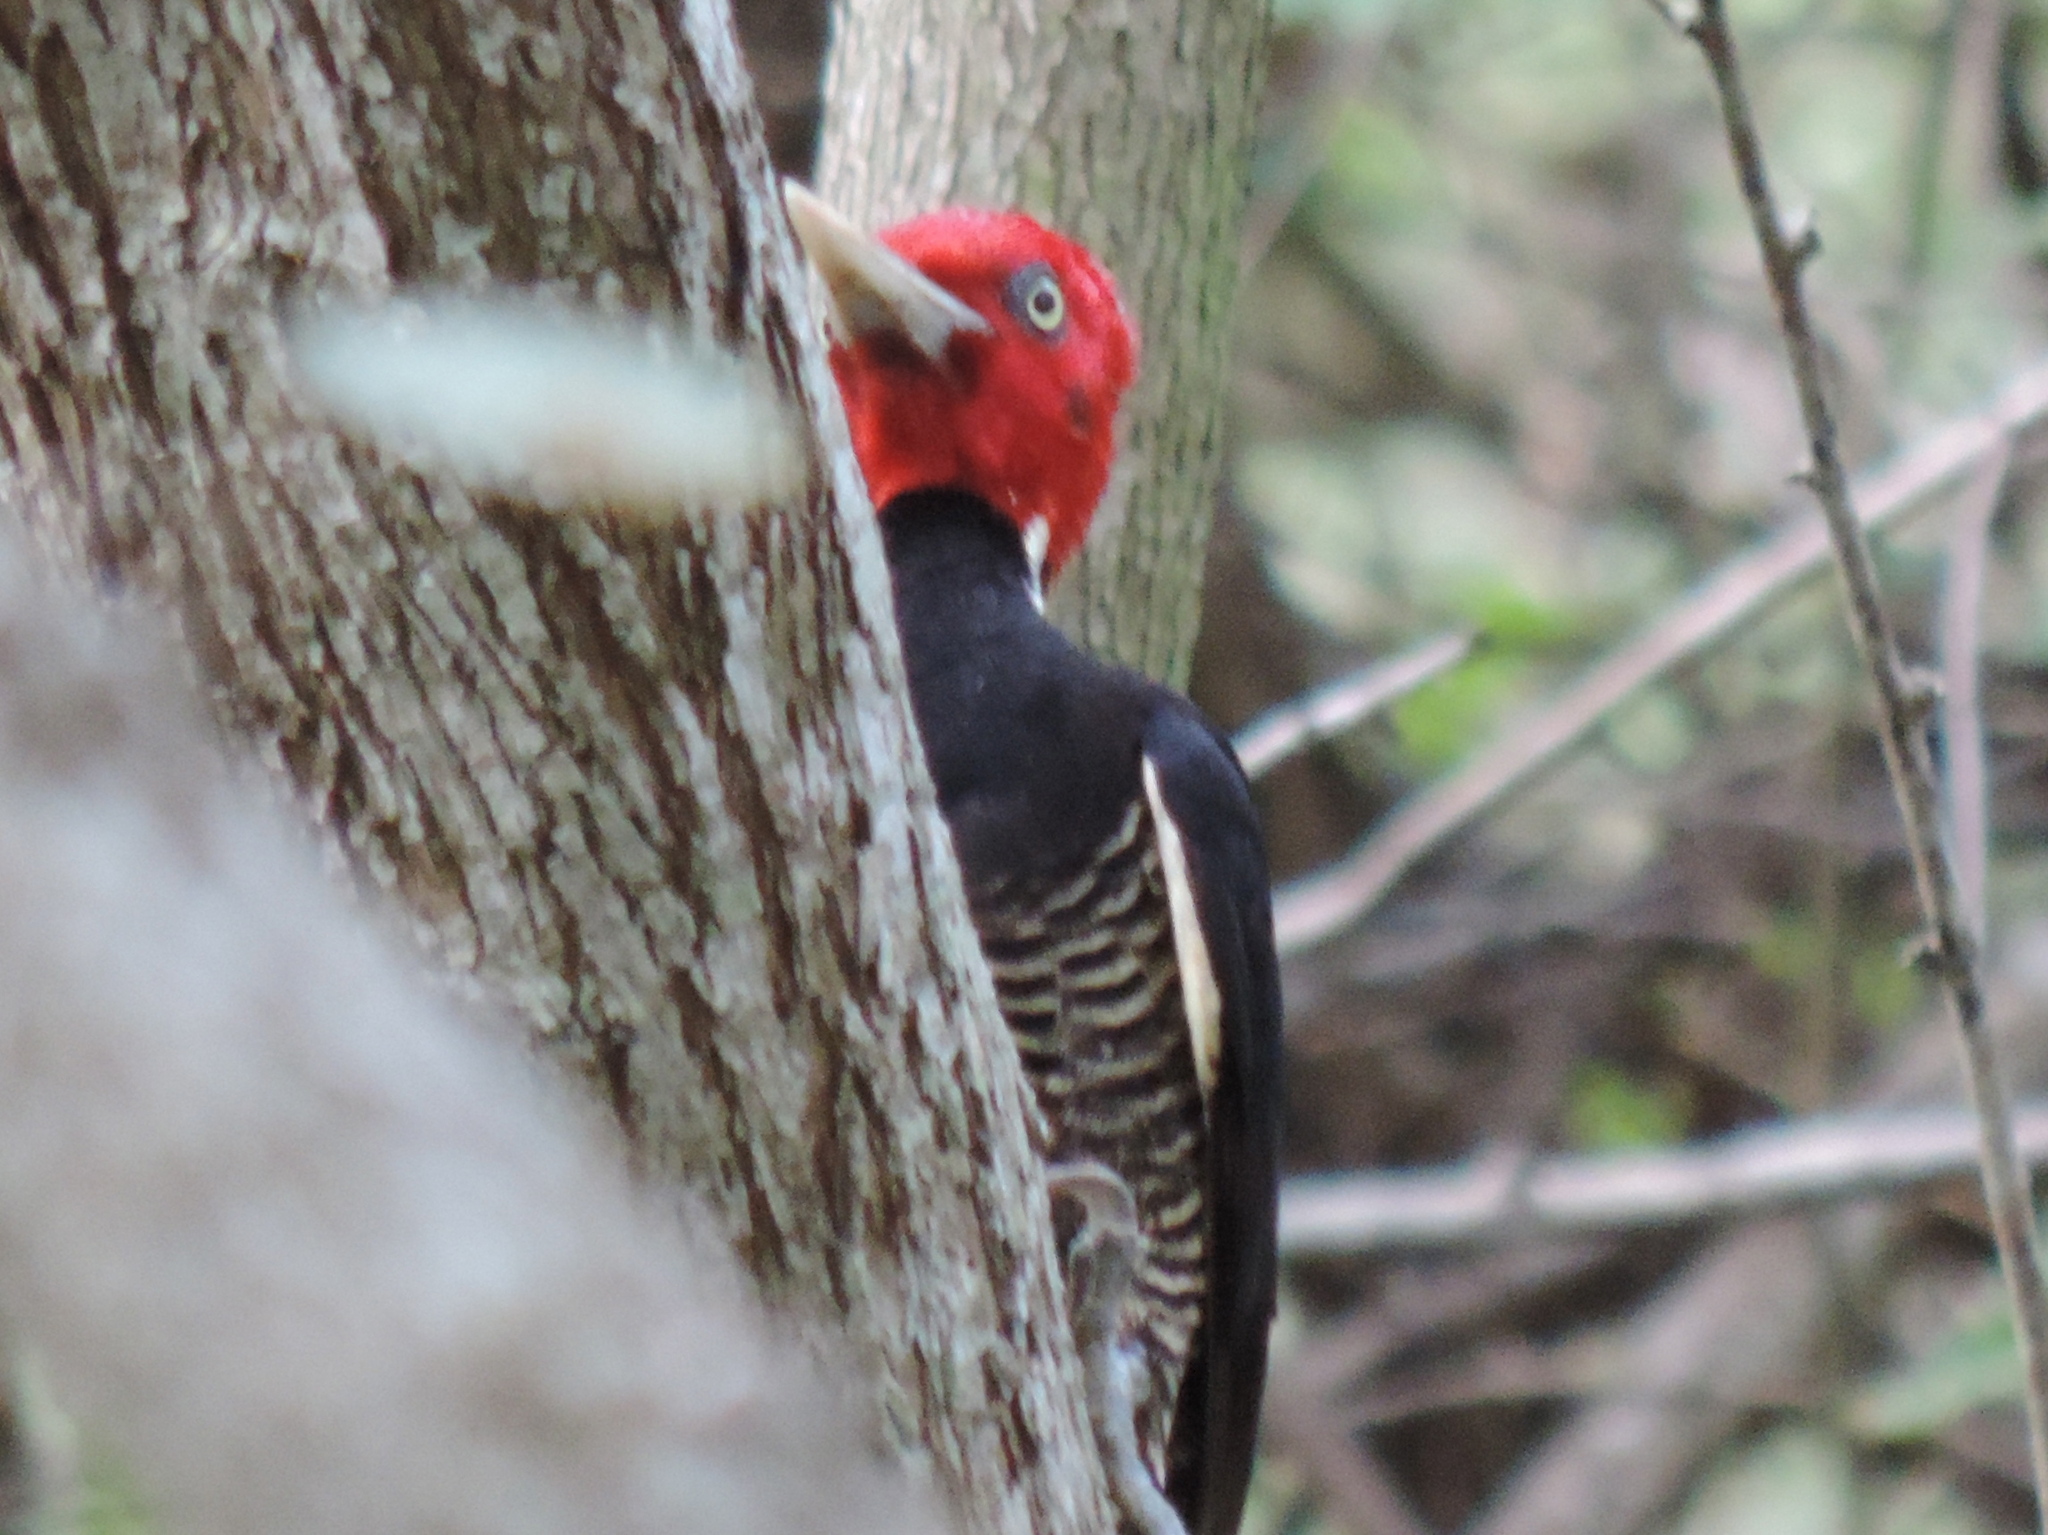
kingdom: Animalia
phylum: Chordata
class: Aves
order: Piciformes
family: Picidae
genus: Campephilus
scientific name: Campephilus guatemalensis
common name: Pale-billed woodpecker
